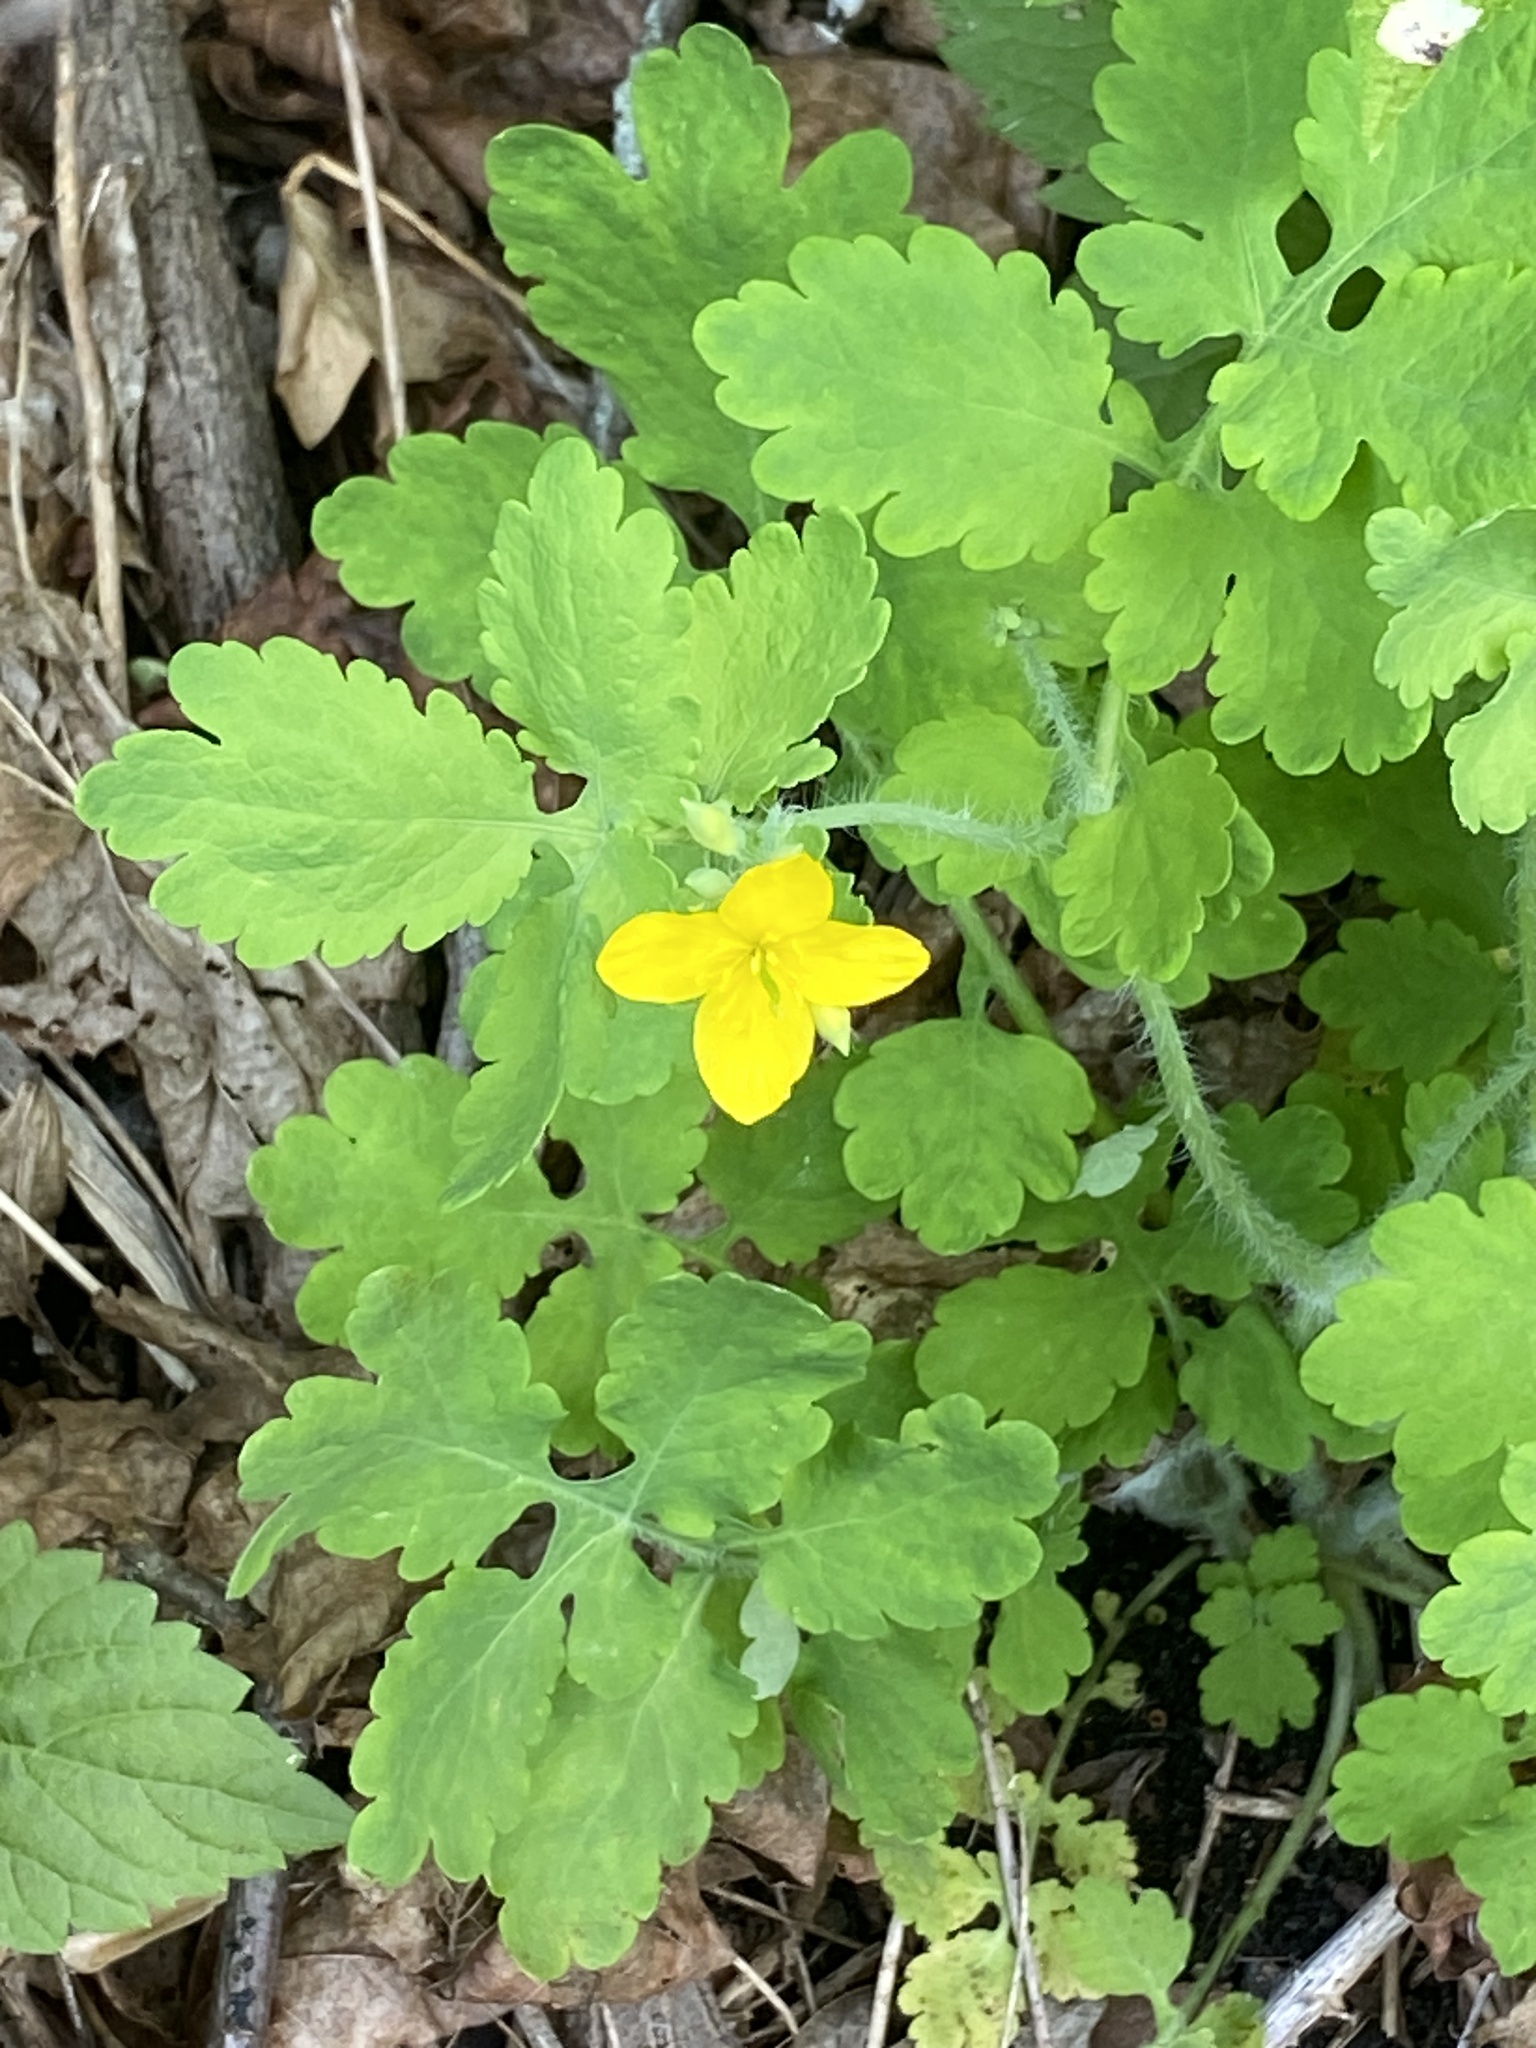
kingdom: Plantae
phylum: Tracheophyta
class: Magnoliopsida
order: Ranunculales
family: Papaveraceae
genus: Chelidonium
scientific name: Chelidonium majus
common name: Greater celandine
